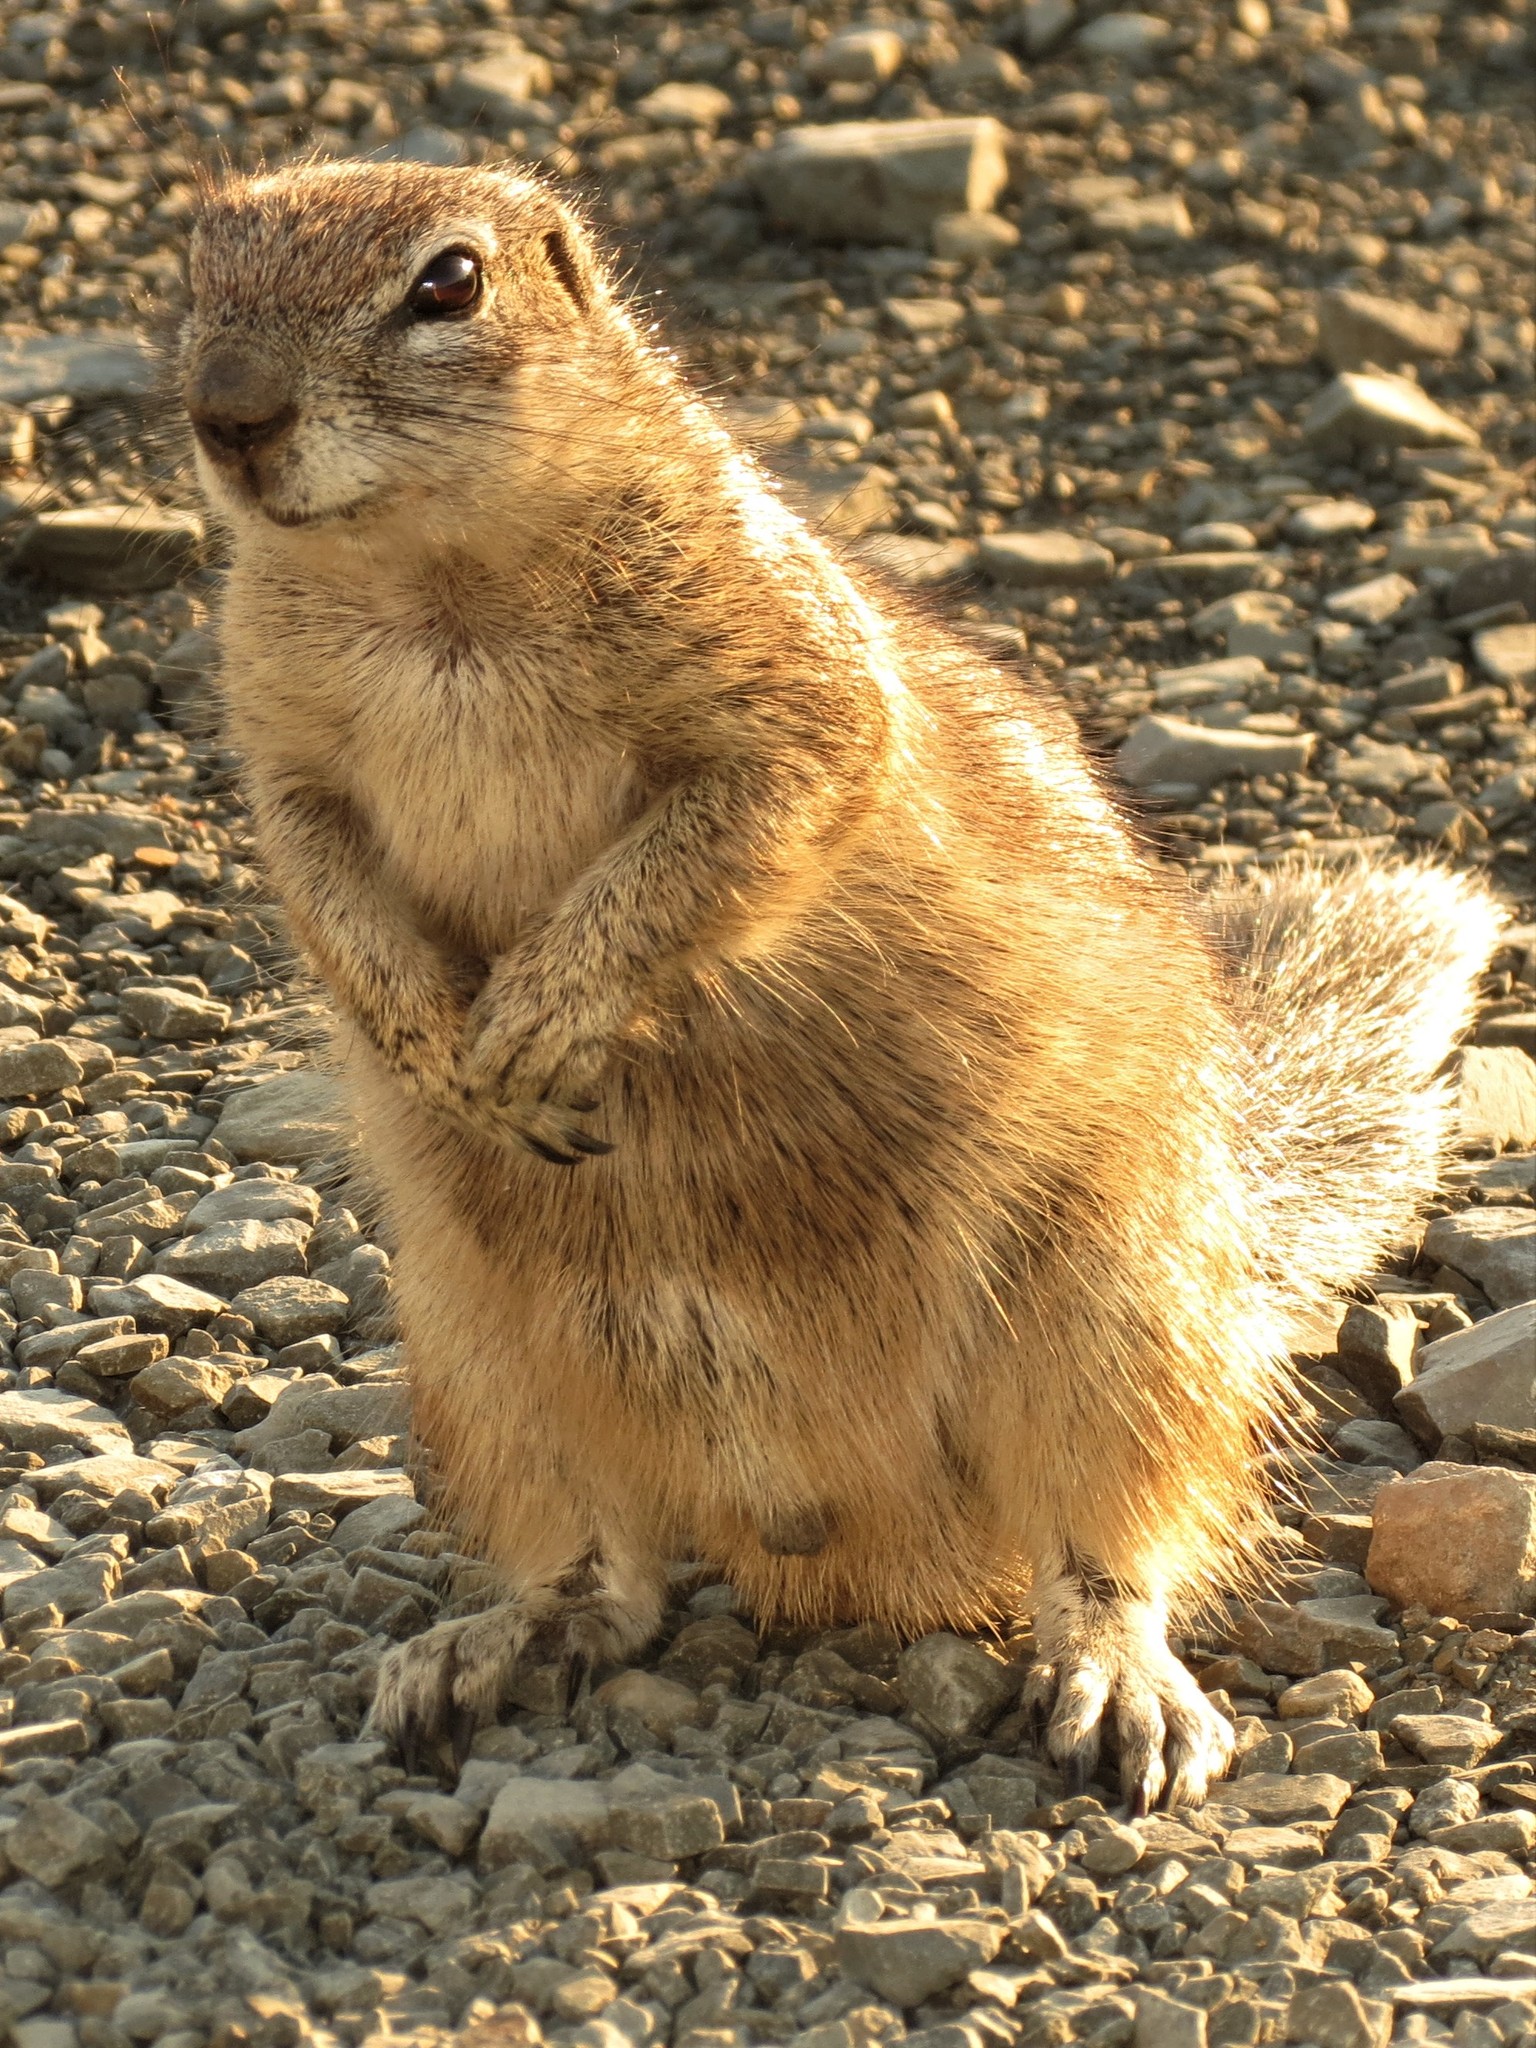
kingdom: Animalia
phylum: Chordata
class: Mammalia
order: Rodentia
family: Sciuridae
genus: Xerus
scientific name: Xerus inauris
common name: South african ground squirrel
